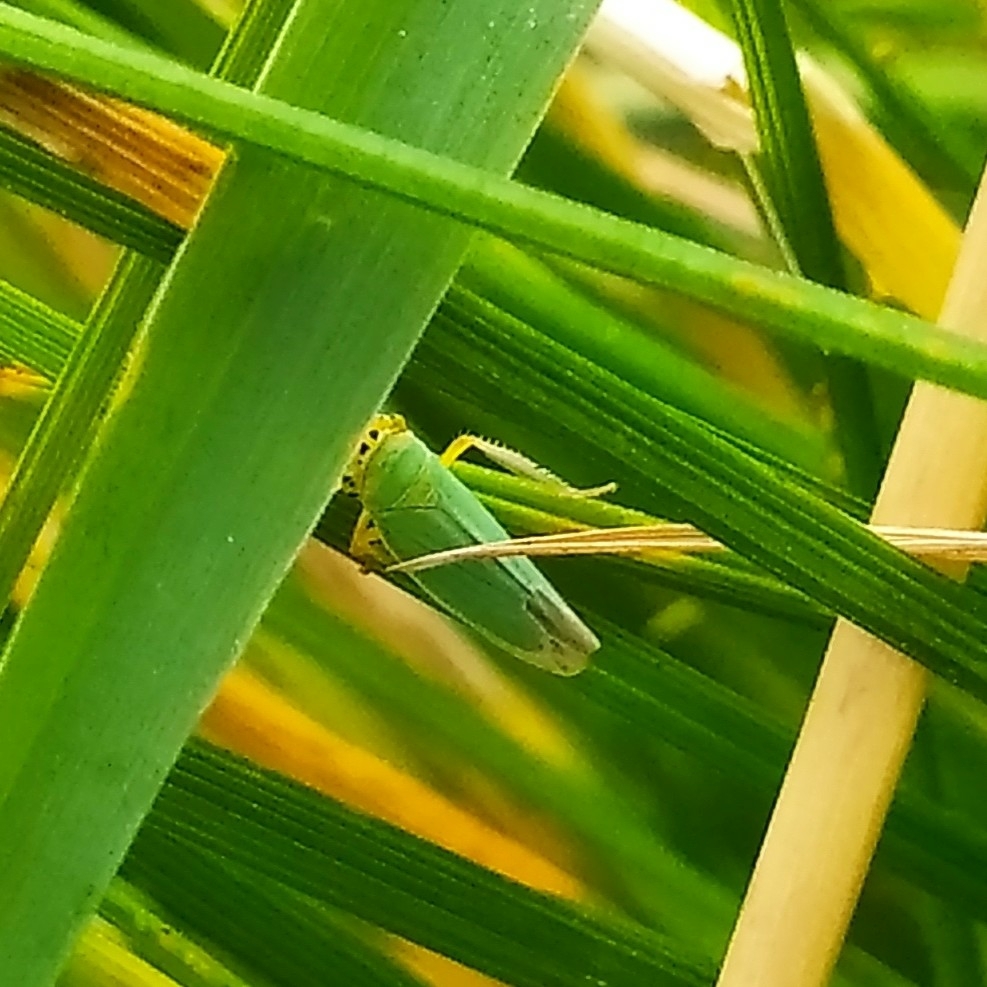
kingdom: Animalia
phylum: Arthropoda
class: Insecta
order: Hemiptera
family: Cicadellidae
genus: Cicadella
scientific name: Cicadella viridis
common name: Leafhopper
